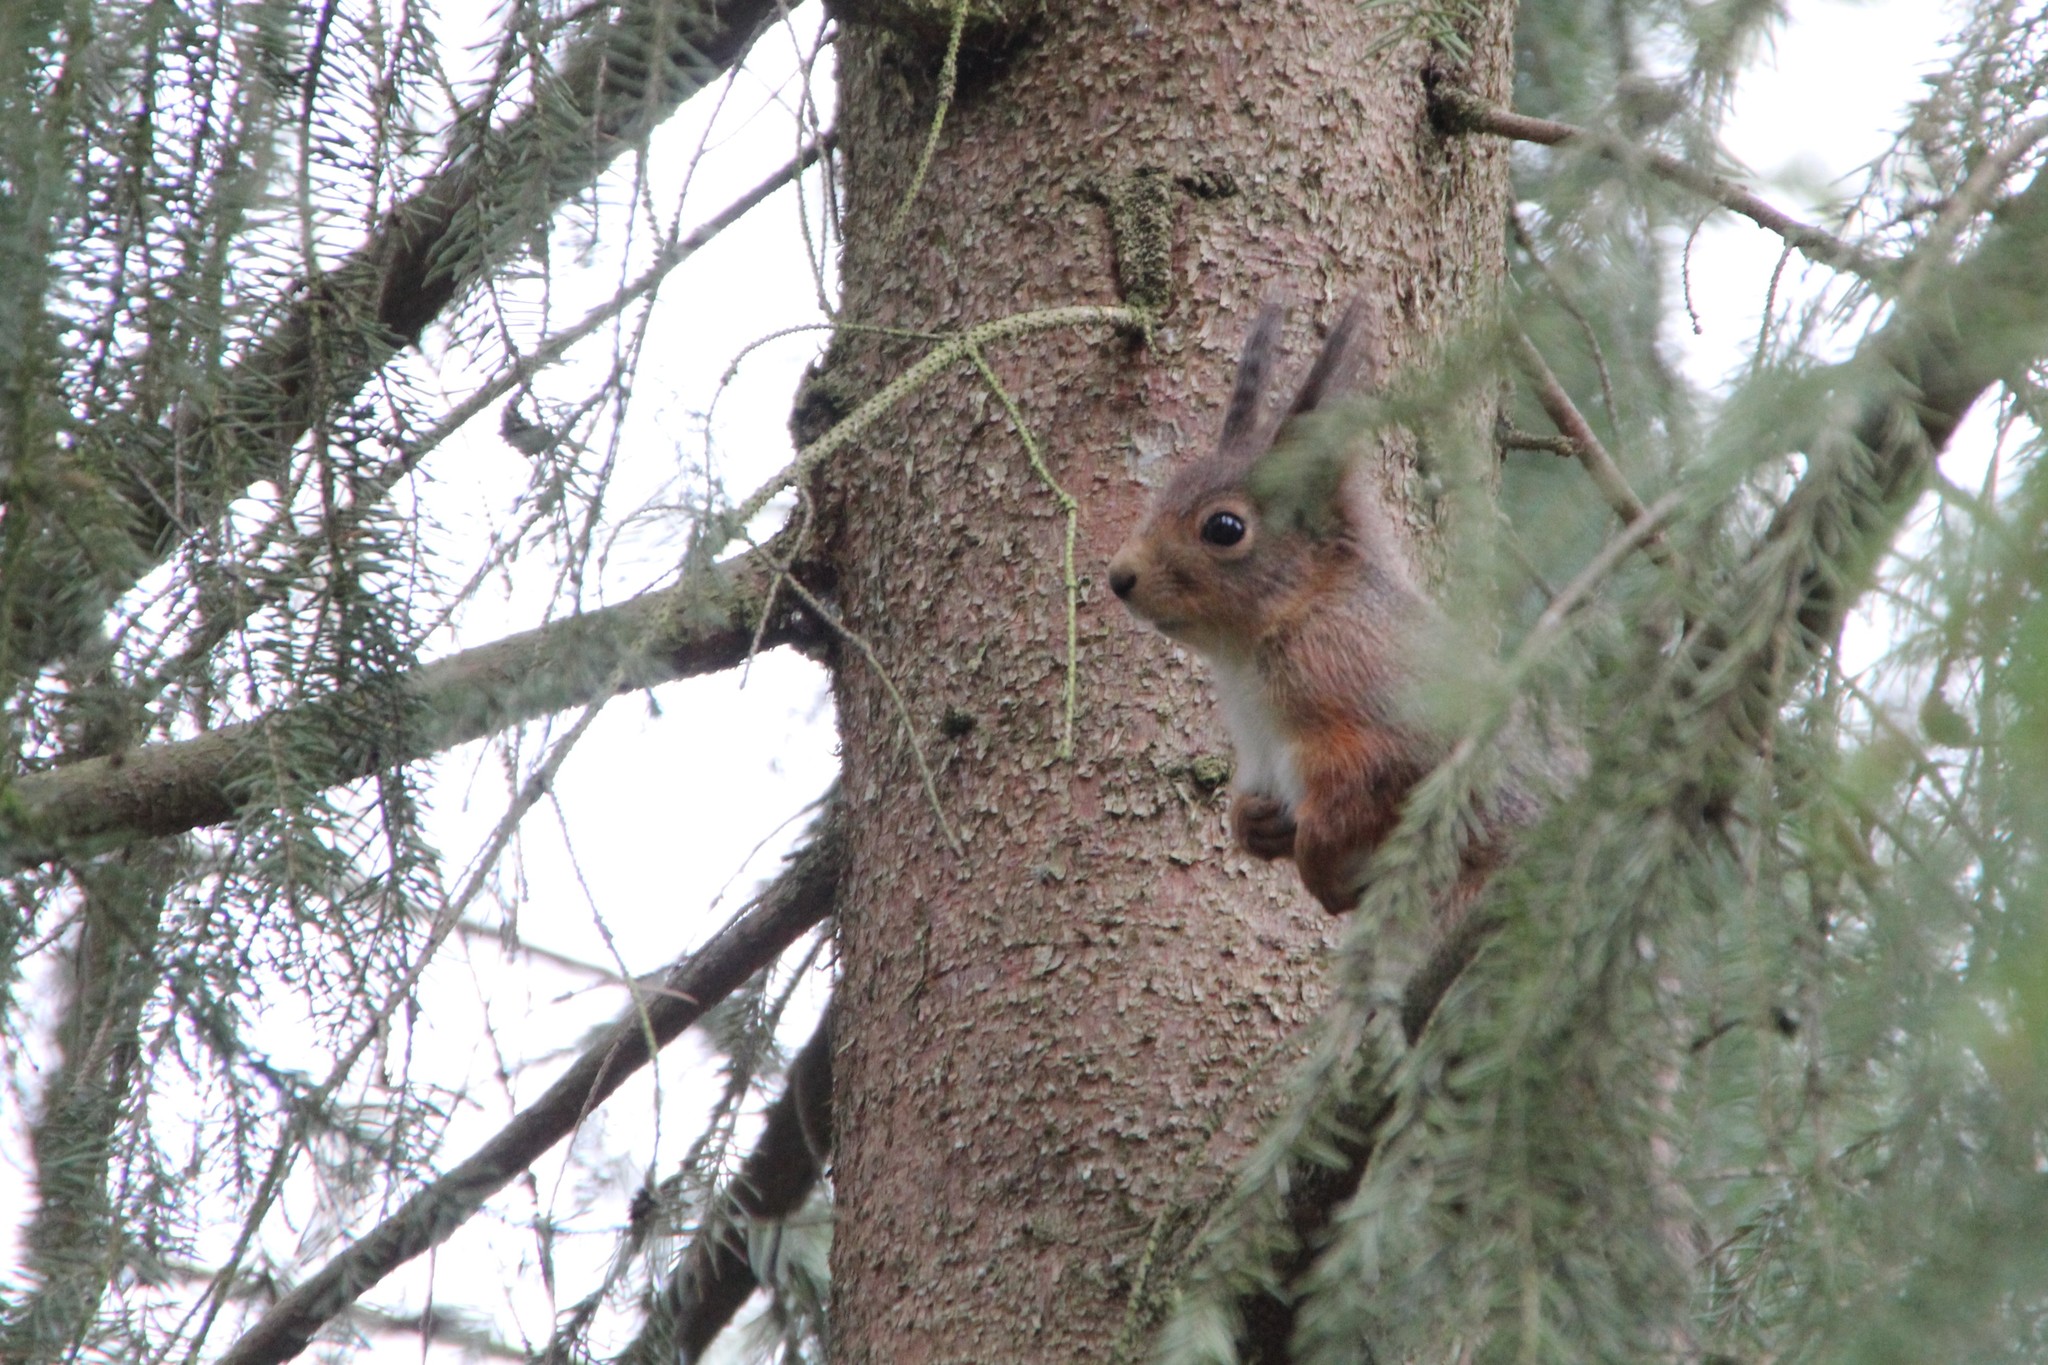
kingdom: Animalia
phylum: Chordata
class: Mammalia
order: Rodentia
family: Sciuridae
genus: Sciurus
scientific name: Sciurus vulgaris
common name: Eurasian red squirrel
